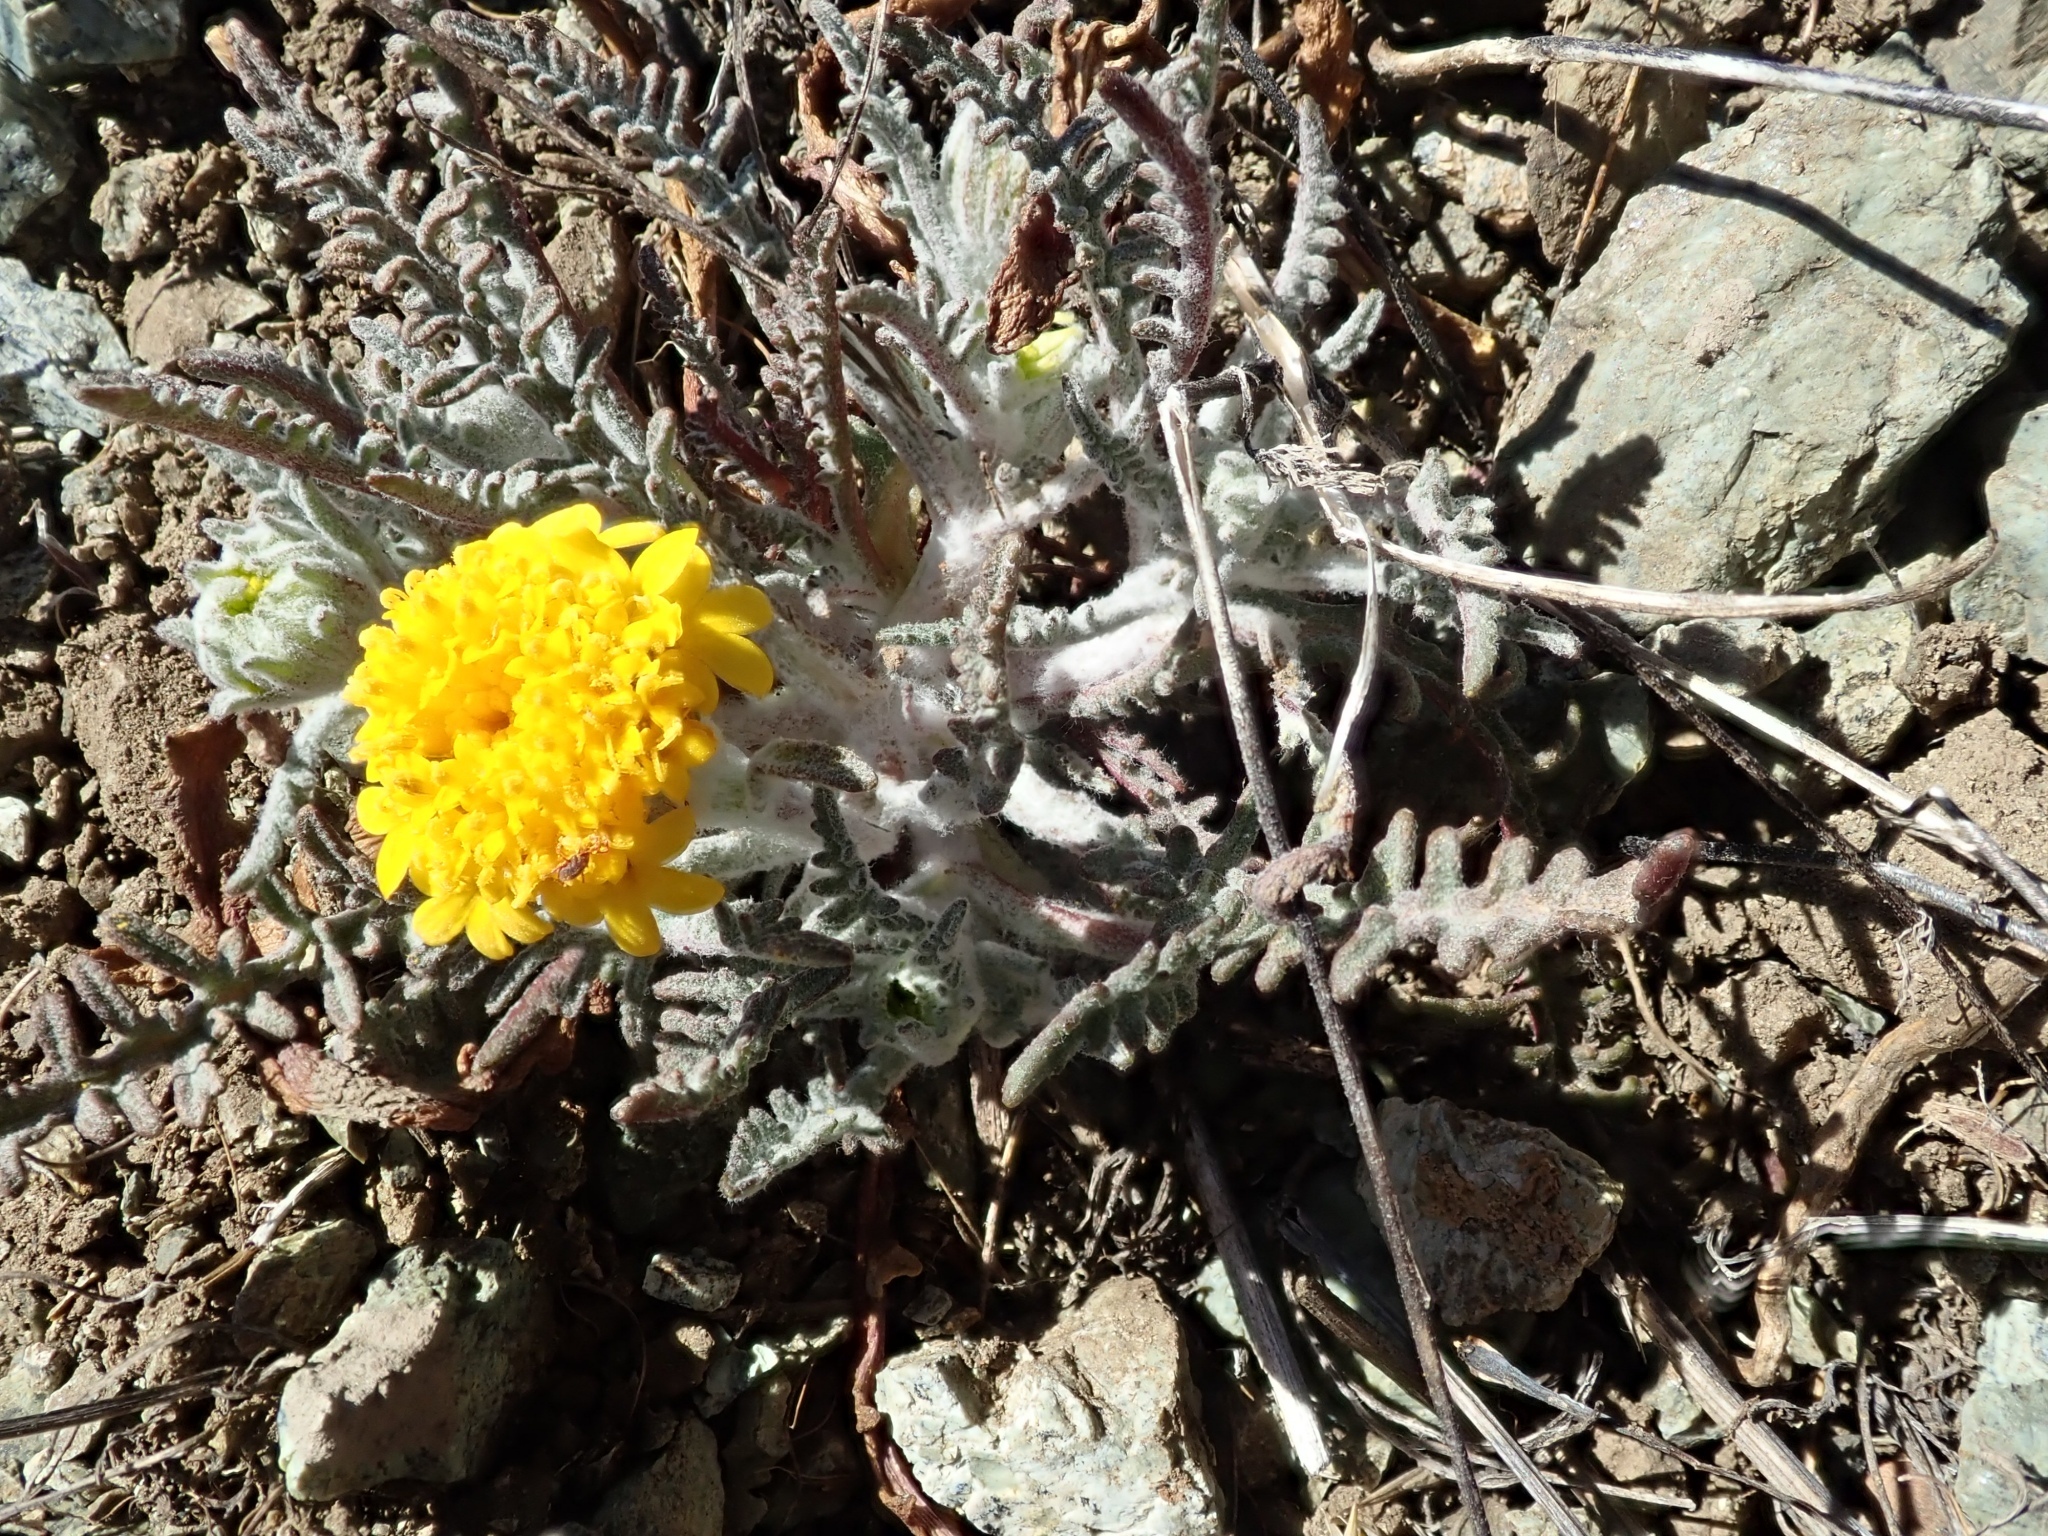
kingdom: Plantae
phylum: Tracheophyta
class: Magnoliopsida
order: Asterales
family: Asteraceae
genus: Chaenactis
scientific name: Chaenactis glabriuscula
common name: Yellow pincushion
